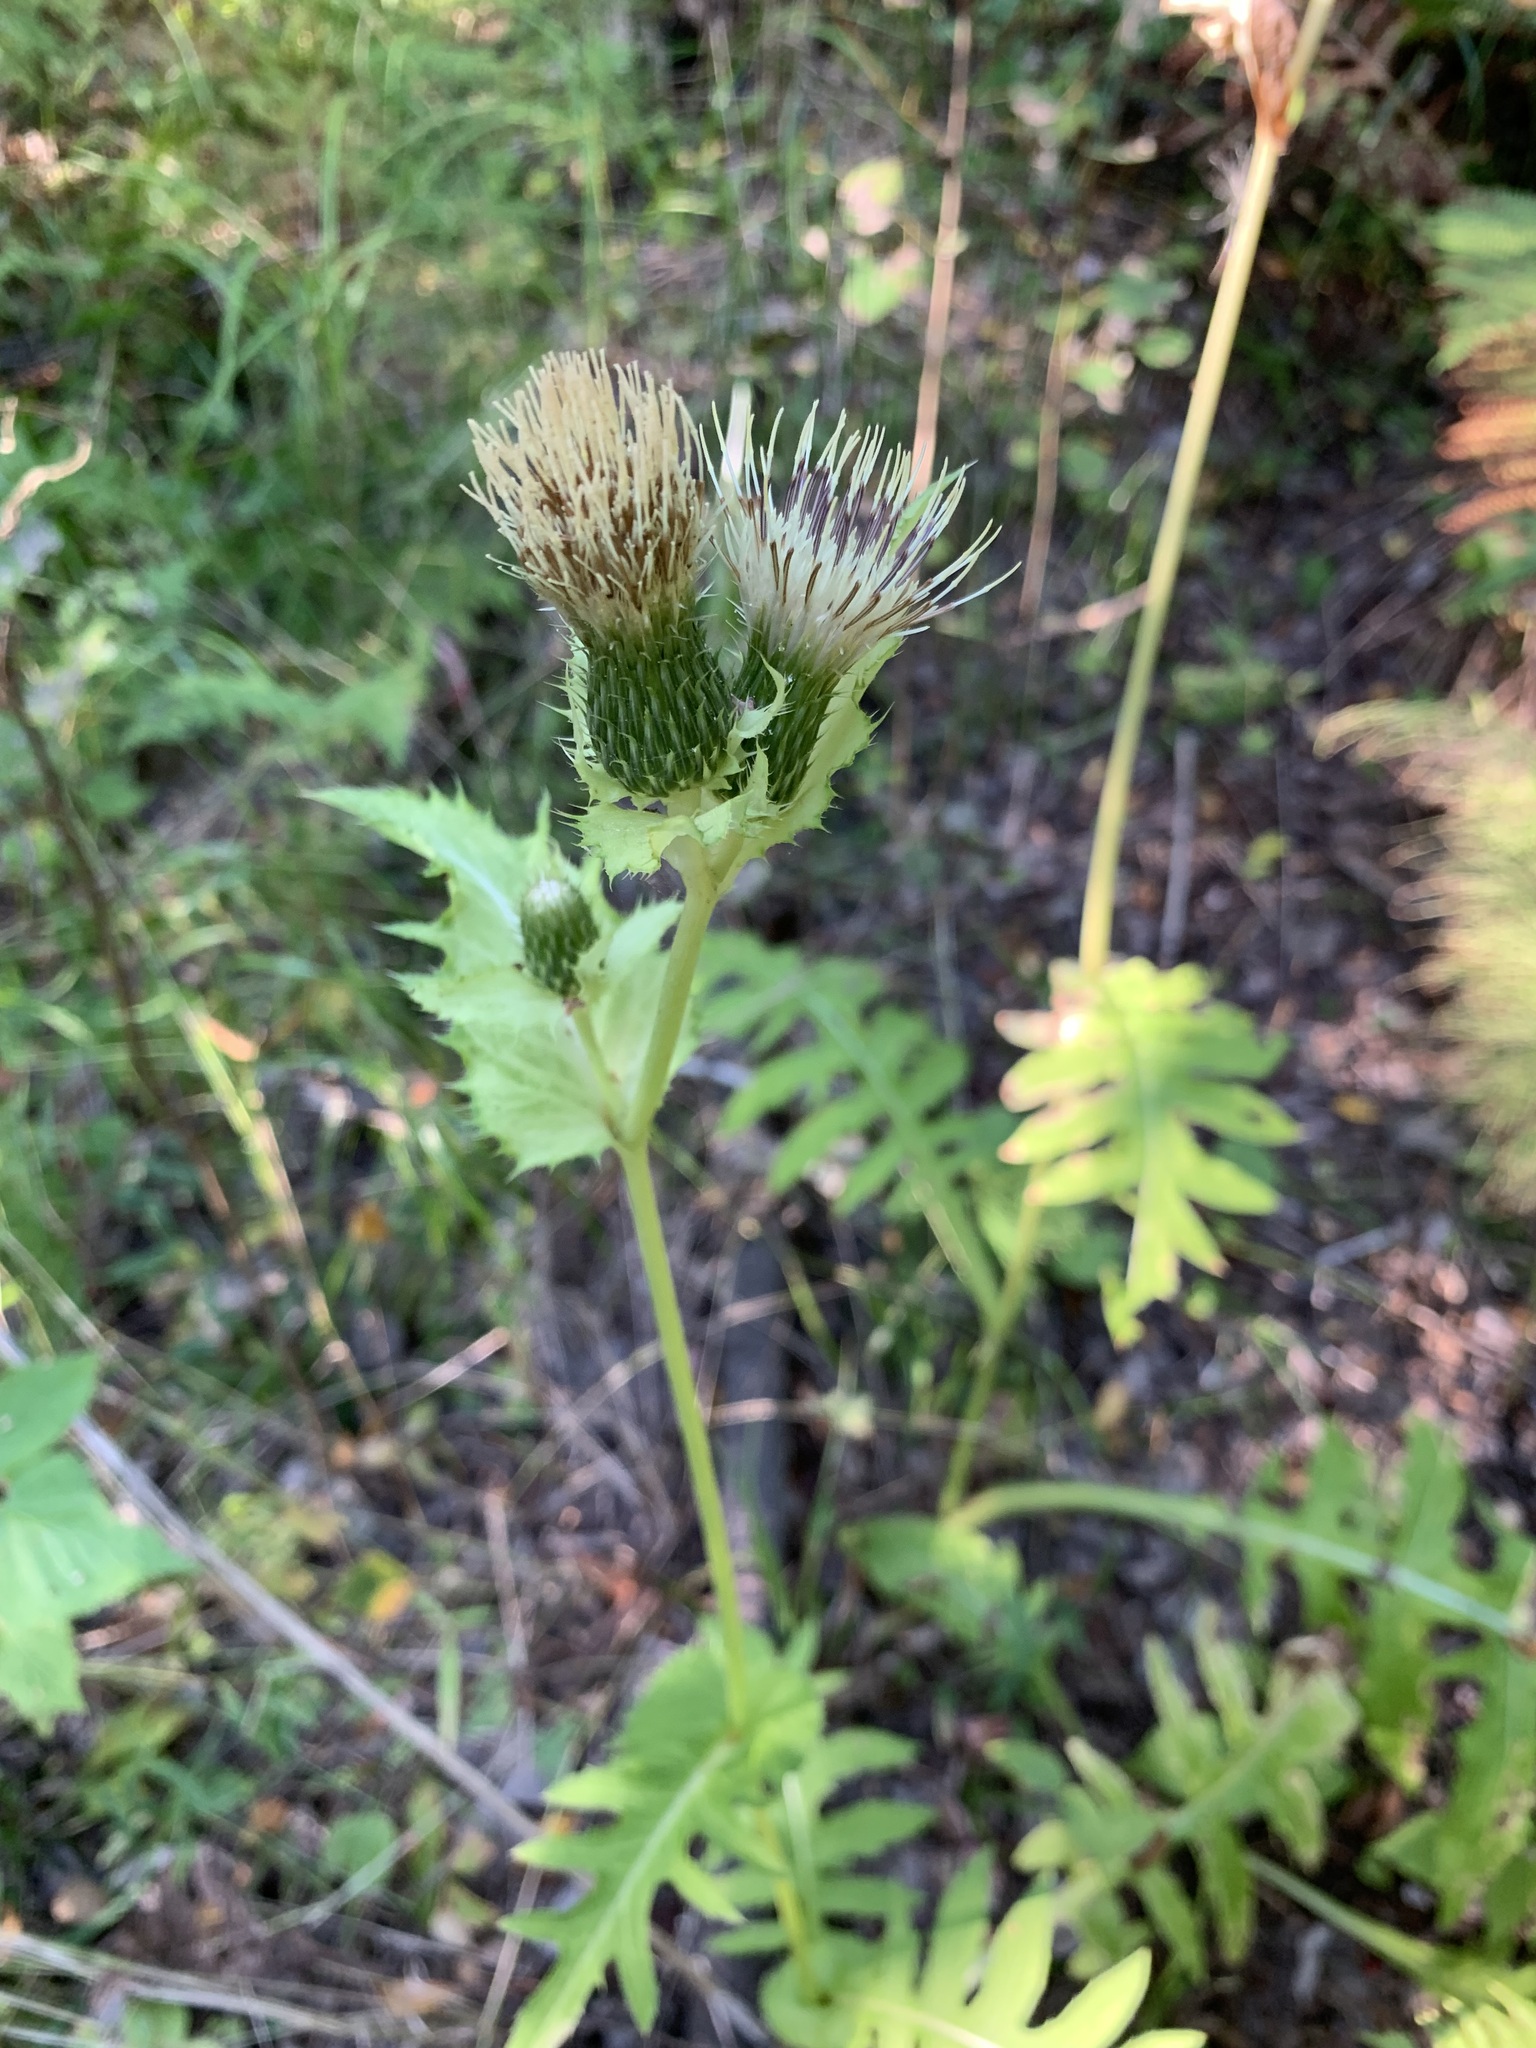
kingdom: Plantae
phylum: Tracheophyta
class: Magnoliopsida
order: Asterales
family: Asteraceae
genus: Cirsium
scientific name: Cirsium oleraceum
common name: Cabbage thistle
